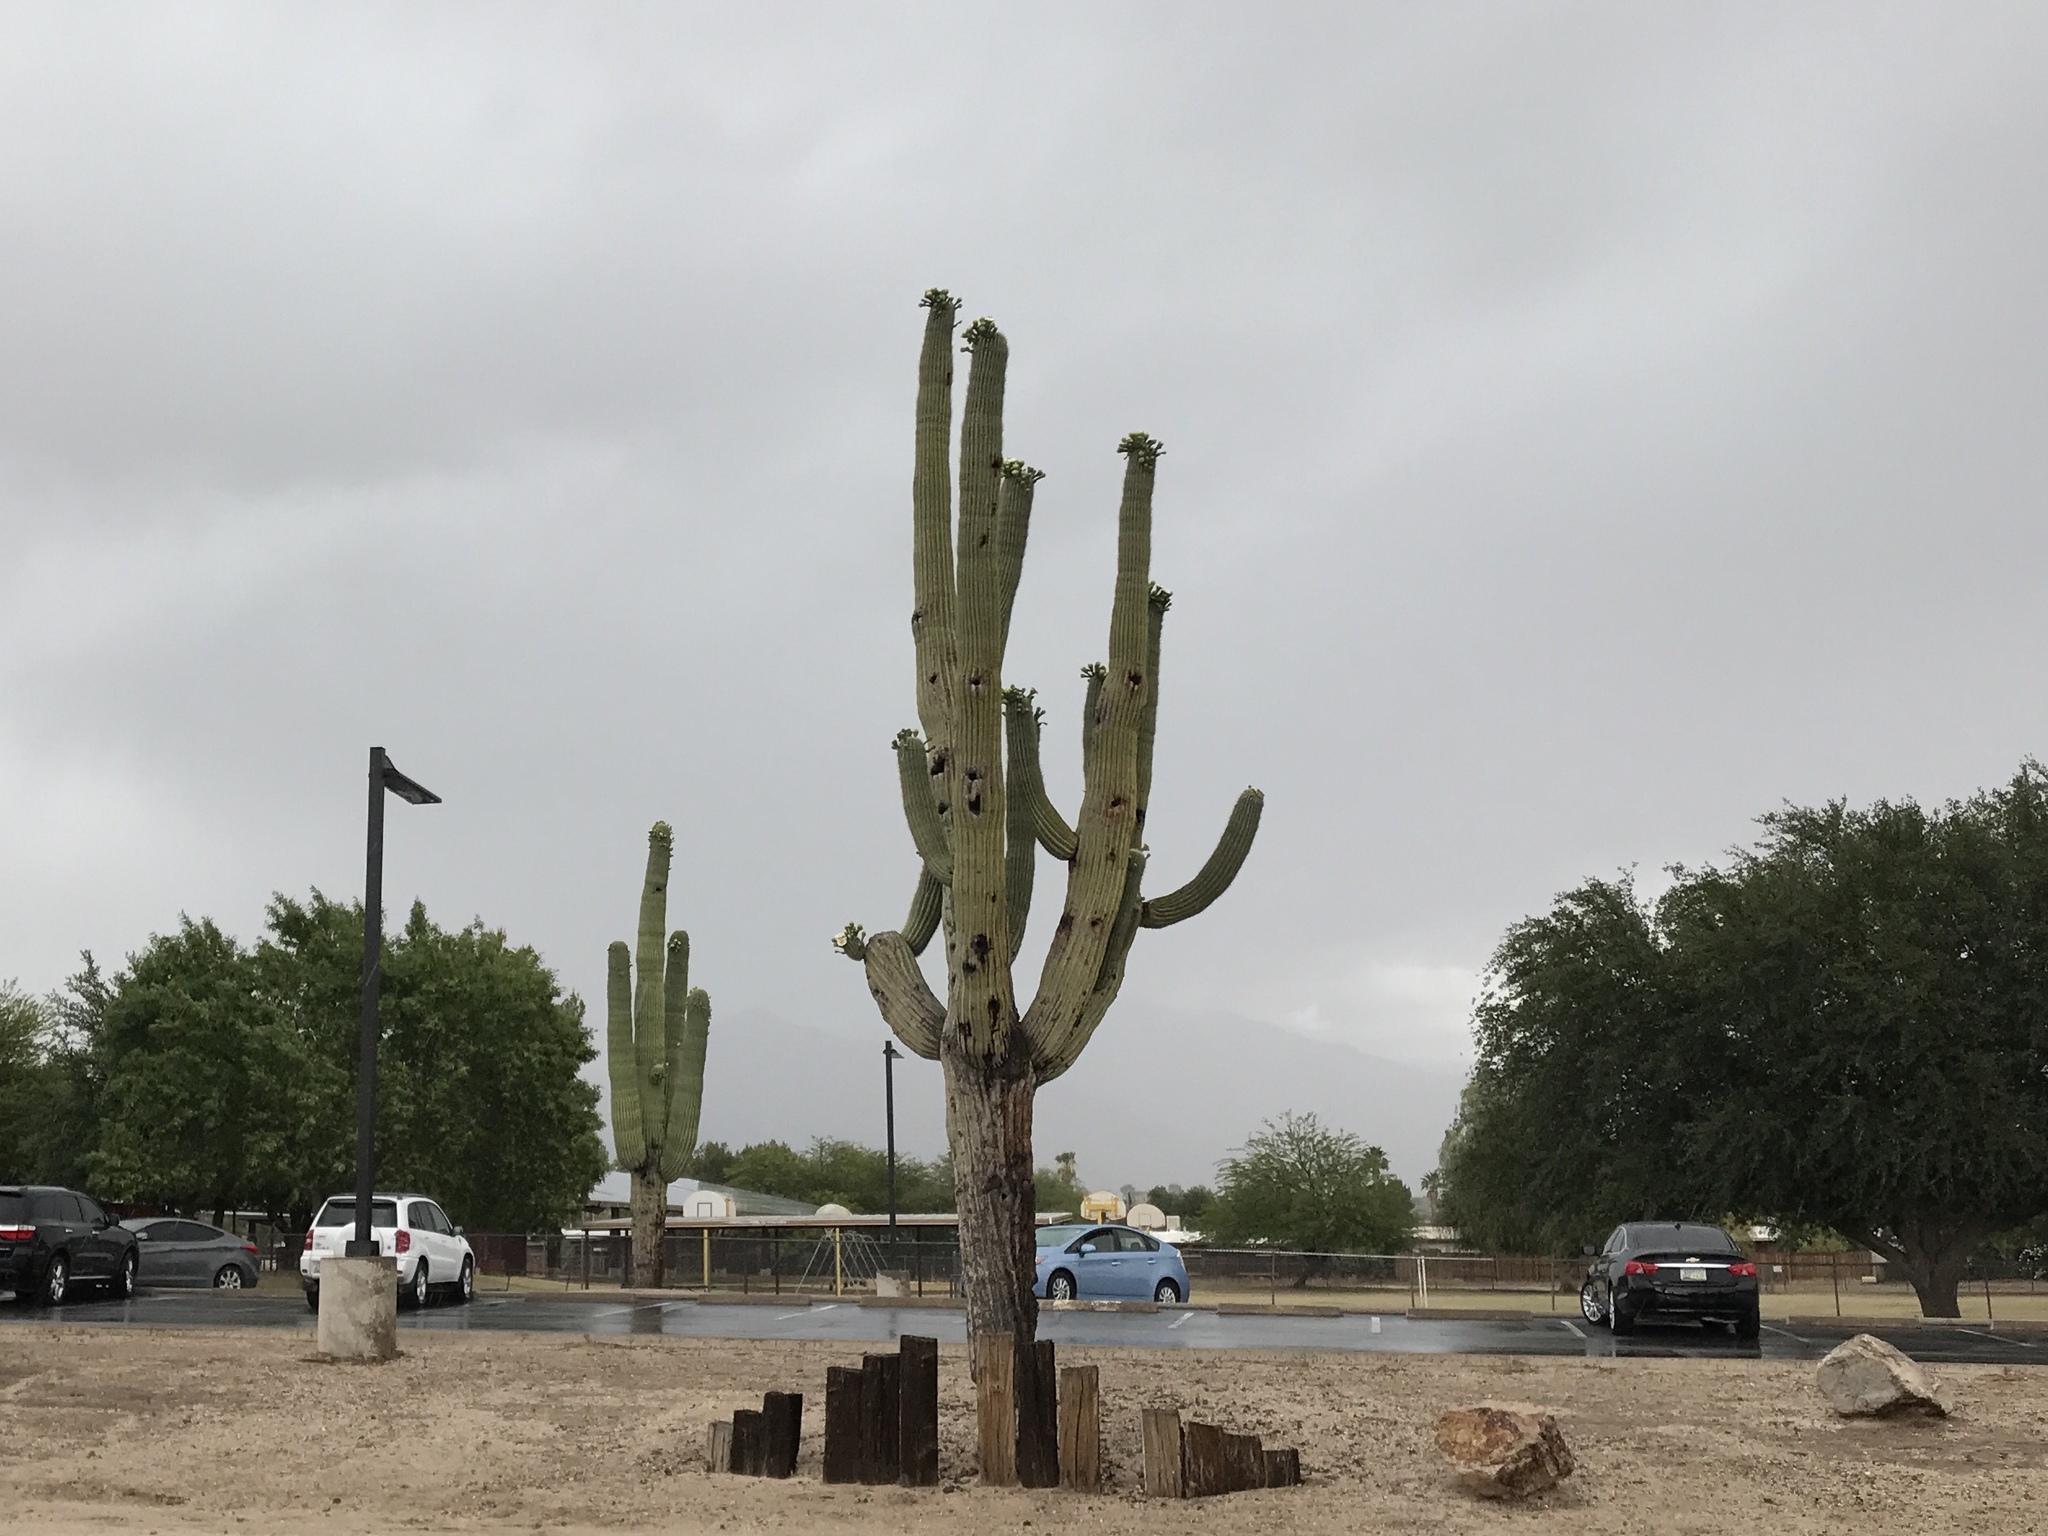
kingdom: Plantae
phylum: Tracheophyta
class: Magnoliopsida
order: Caryophyllales
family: Cactaceae
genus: Carnegiea
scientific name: Carnegiea gigantea
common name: Saguaro
